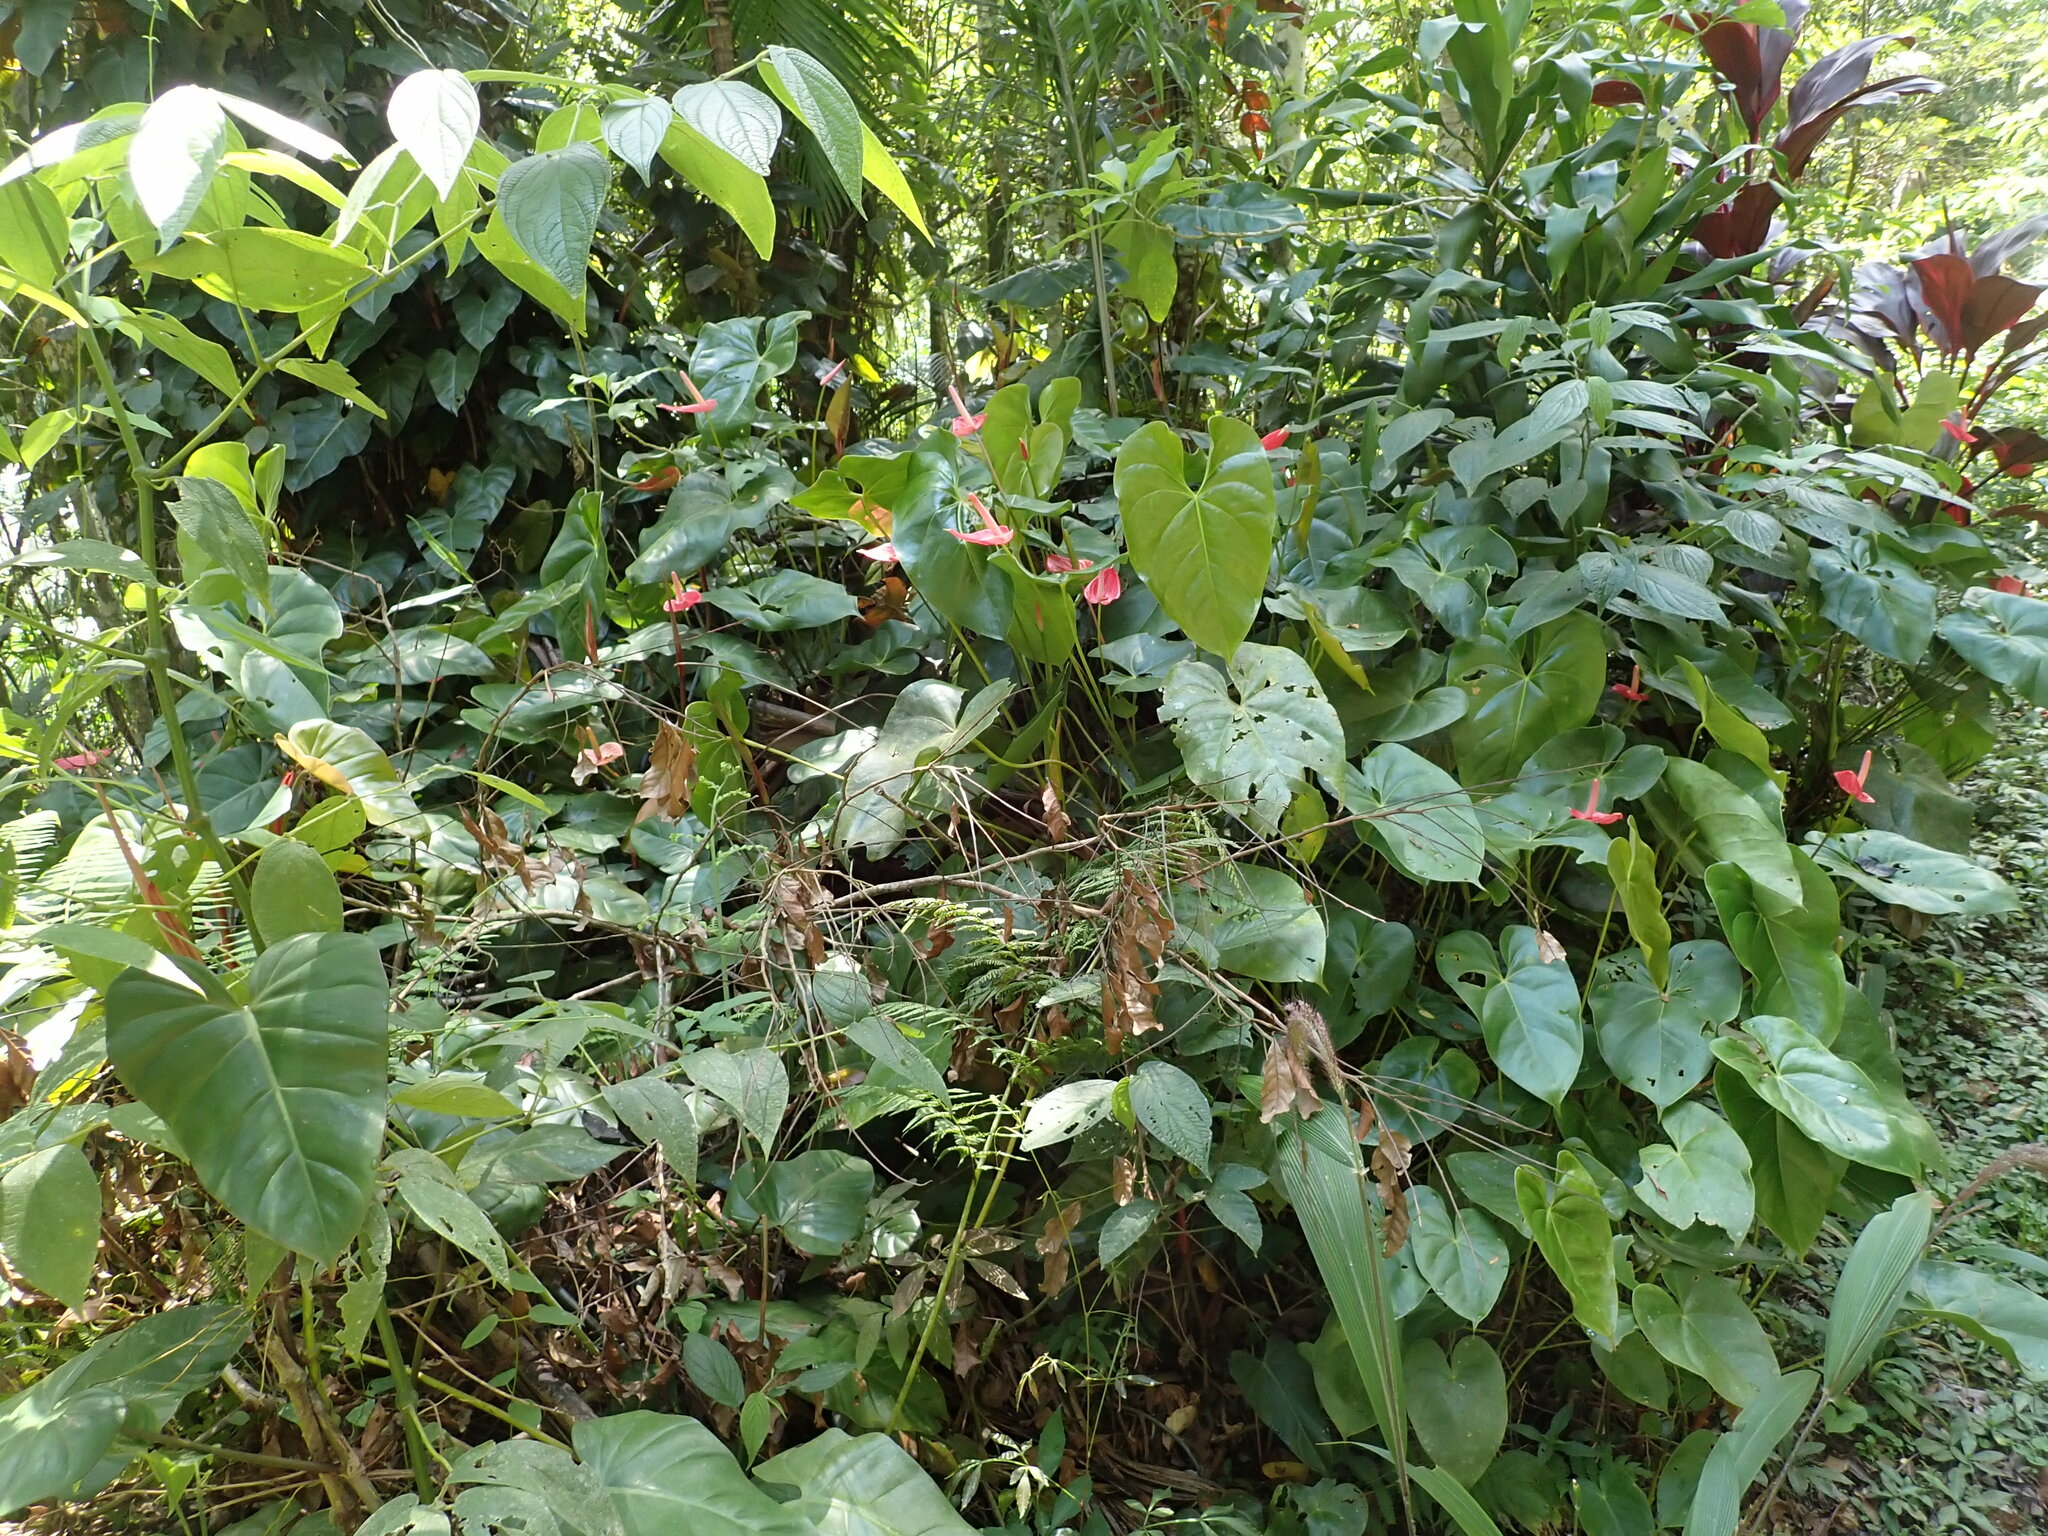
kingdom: Plantae
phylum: Tracheophyta
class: Liliopsida
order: Alismatales
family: Araceae
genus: Anthurium
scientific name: Anthurium andraeanum
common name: Flamingo-flower
